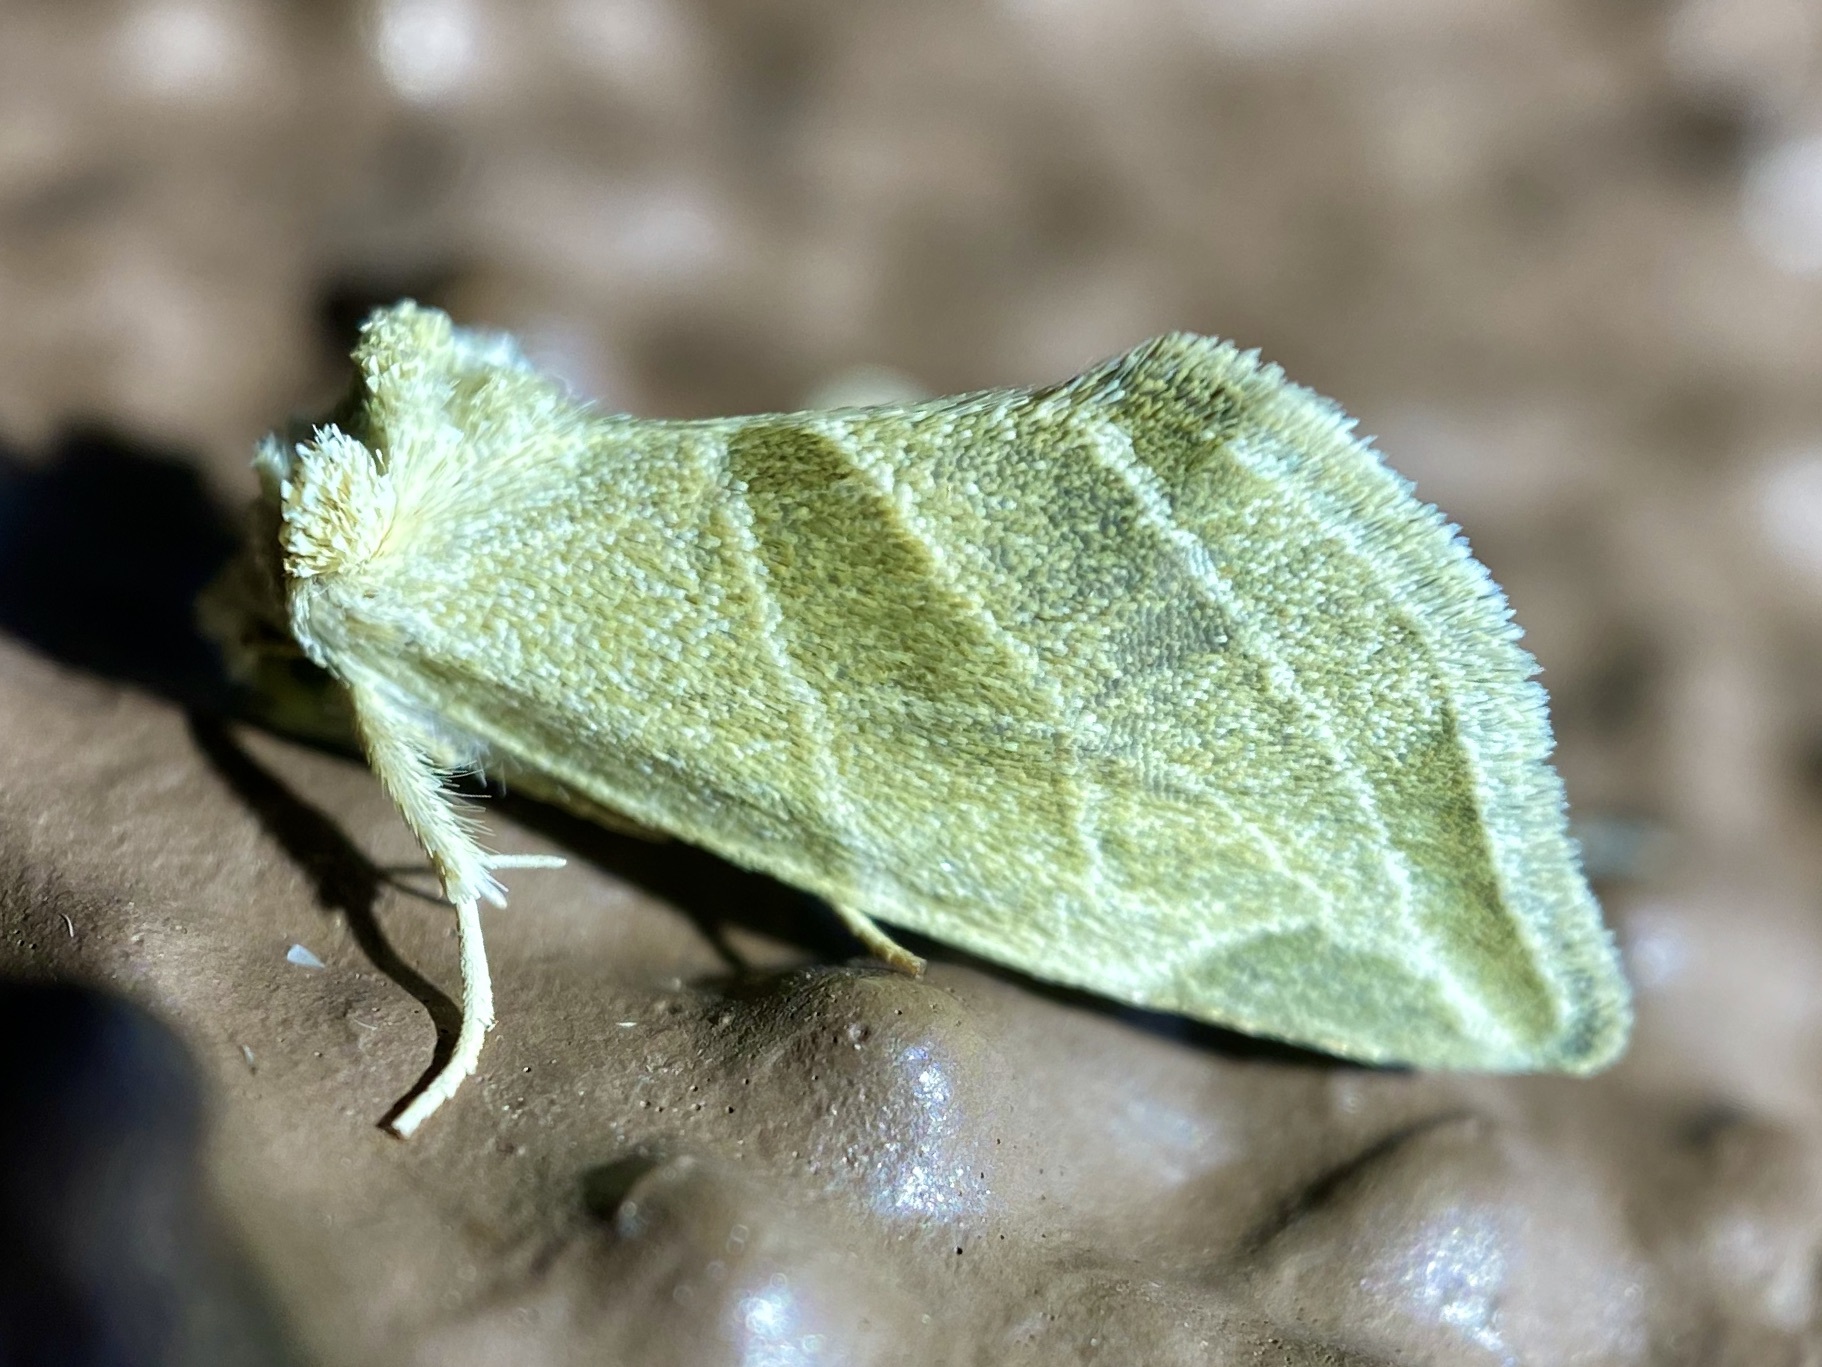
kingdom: Animalia
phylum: Arthropoda
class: Insecta
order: Lepidoptera
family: Noctuidae
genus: Plagiomimicus
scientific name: Plagiomimicus tepperi
